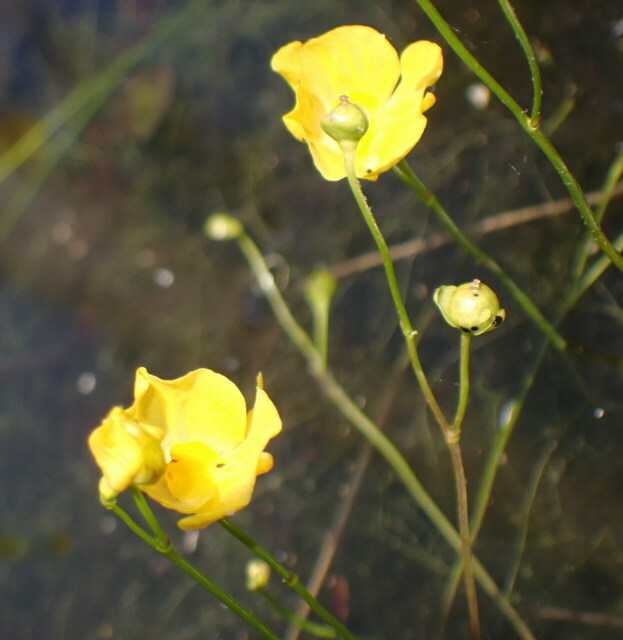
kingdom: Plantae
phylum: Tracheophyta
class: Magnoliopsida
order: Lamiales
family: Lentibulariaceae
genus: Utricularia
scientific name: Utricularia gibba
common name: Humped bladderwort
